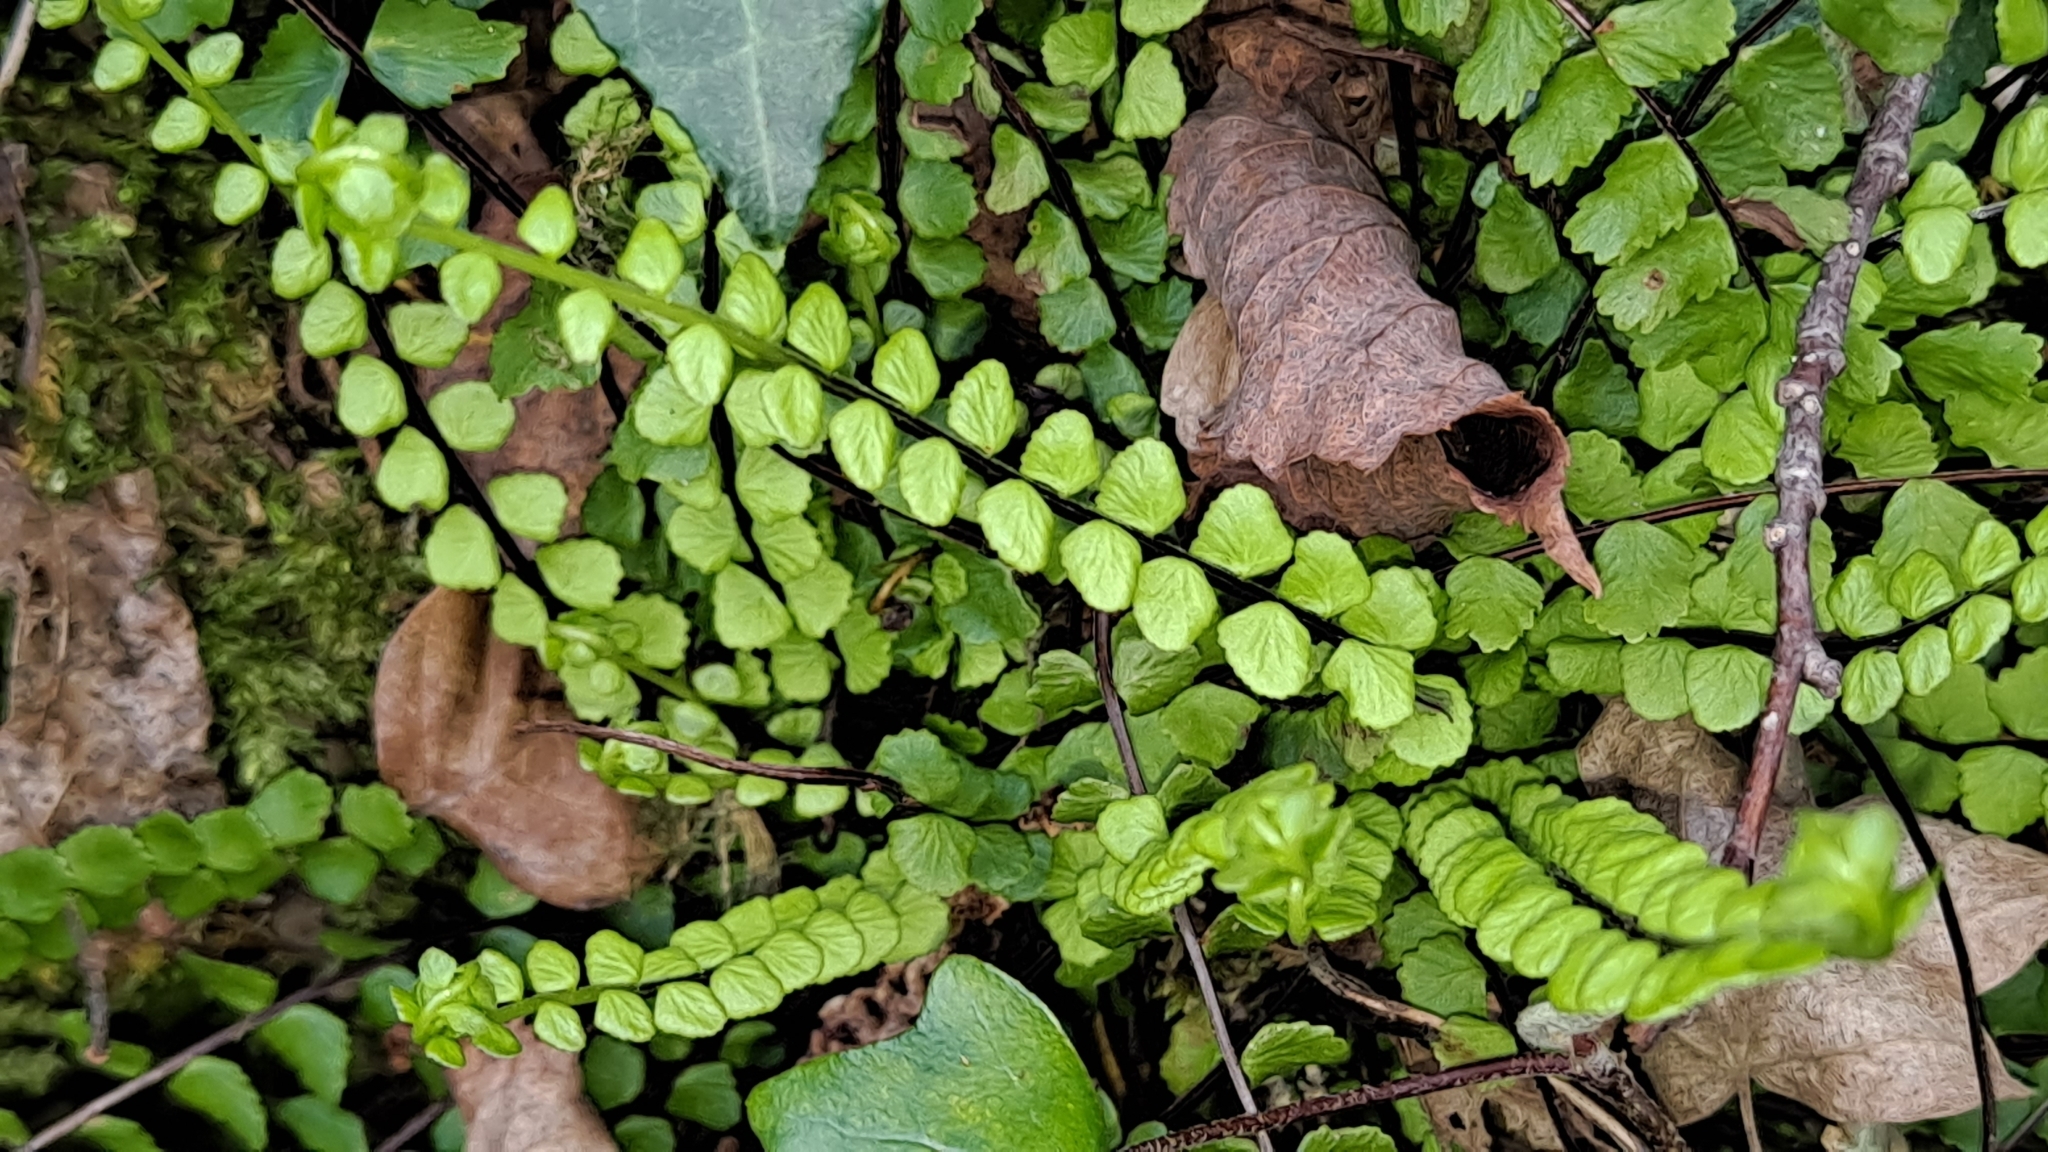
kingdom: Plantae
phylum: Tracheophyta
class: Polypodiopsida
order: Polypodiales
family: Aspleniaceae
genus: Asplenium
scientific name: Asplenium trichomanes
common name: Maidenhair spleenwort
